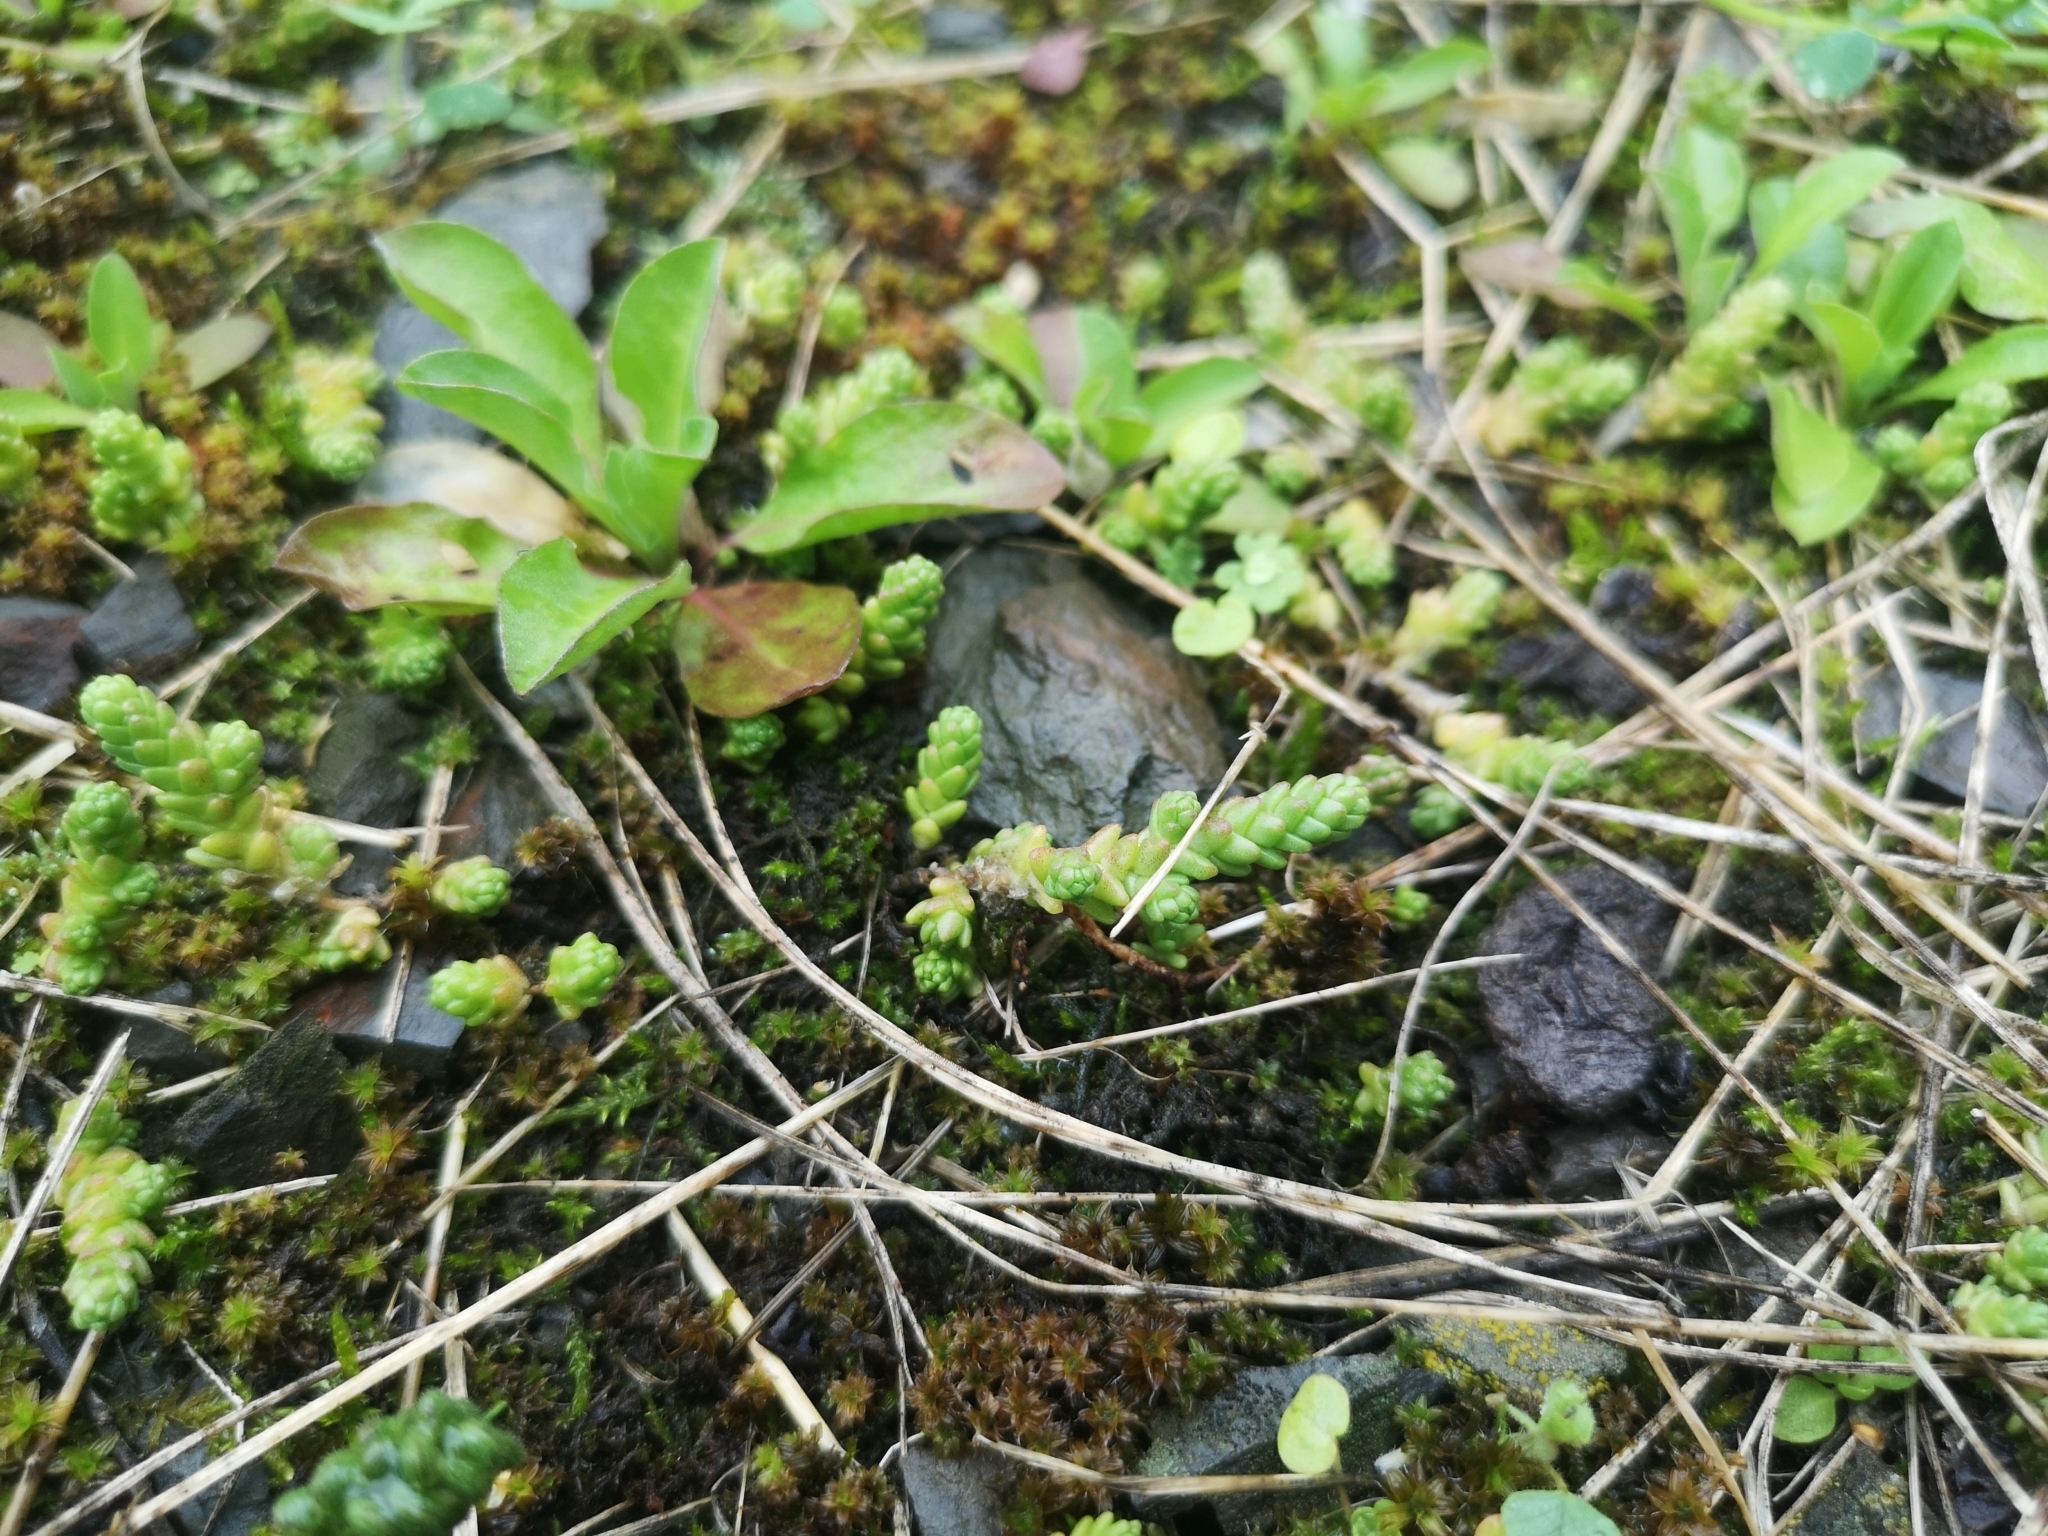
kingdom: Plantae
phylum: Tracheophyta
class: Magnoliopsida
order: Saxifragales
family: Crassulaceae
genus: Sedum
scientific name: Sedum acre
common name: Biting stonecrop
